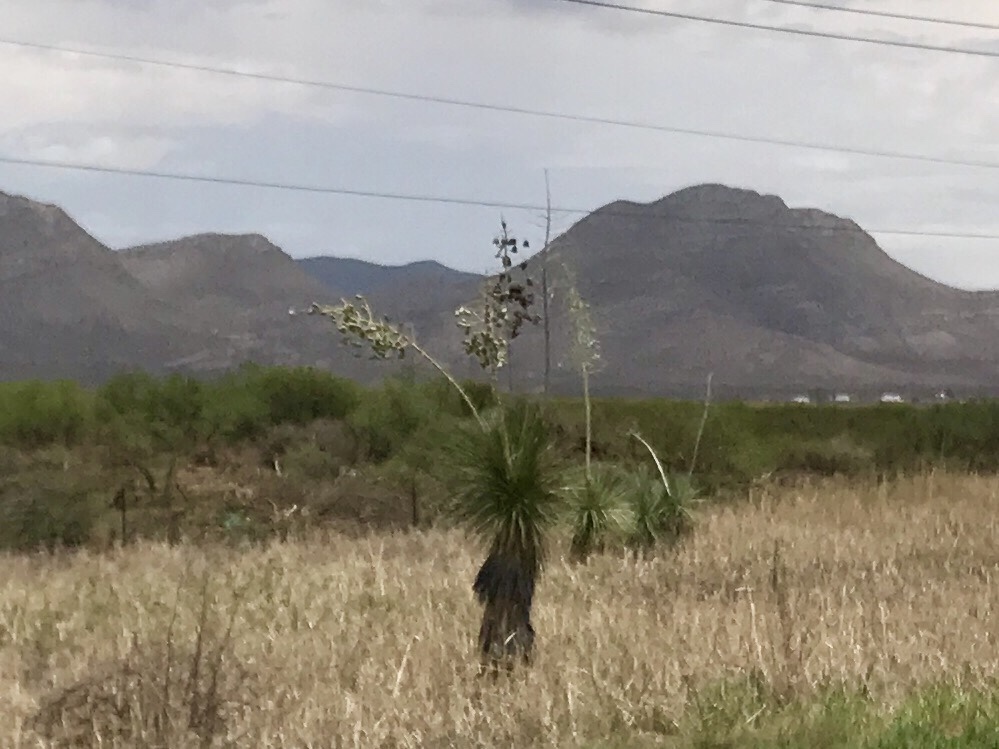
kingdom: Plantae
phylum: Tracheophyta
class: Liliopsida
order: Asparagales
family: Asparagaceae
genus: Yucca
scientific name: Yucca elata
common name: Palmella
